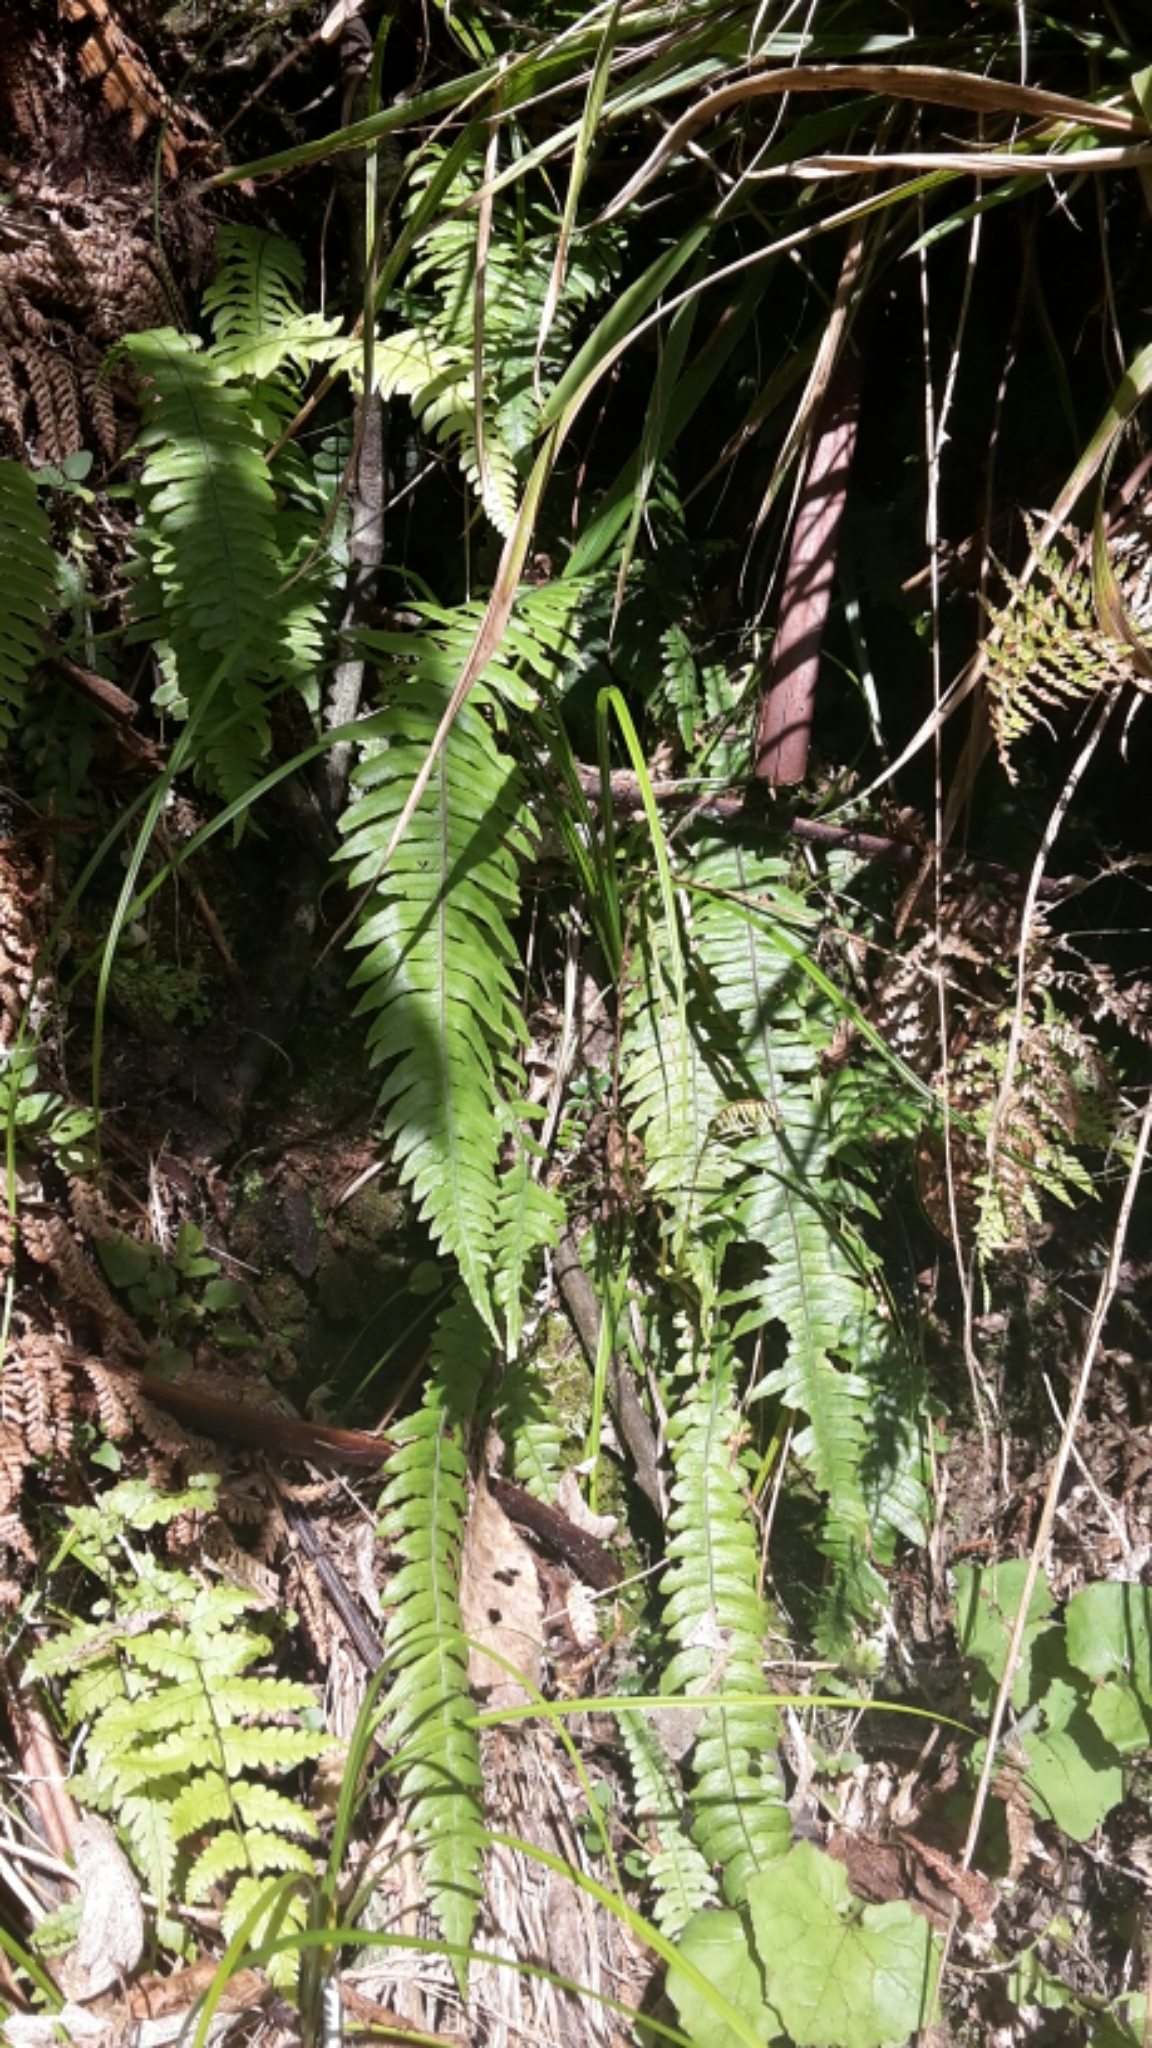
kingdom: Plantae
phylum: Tracheophyta
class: Polypodiopsida
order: Polypodiales
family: Blechnaceae
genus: Austroblechnum
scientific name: Austroblechnum lanceolatum
